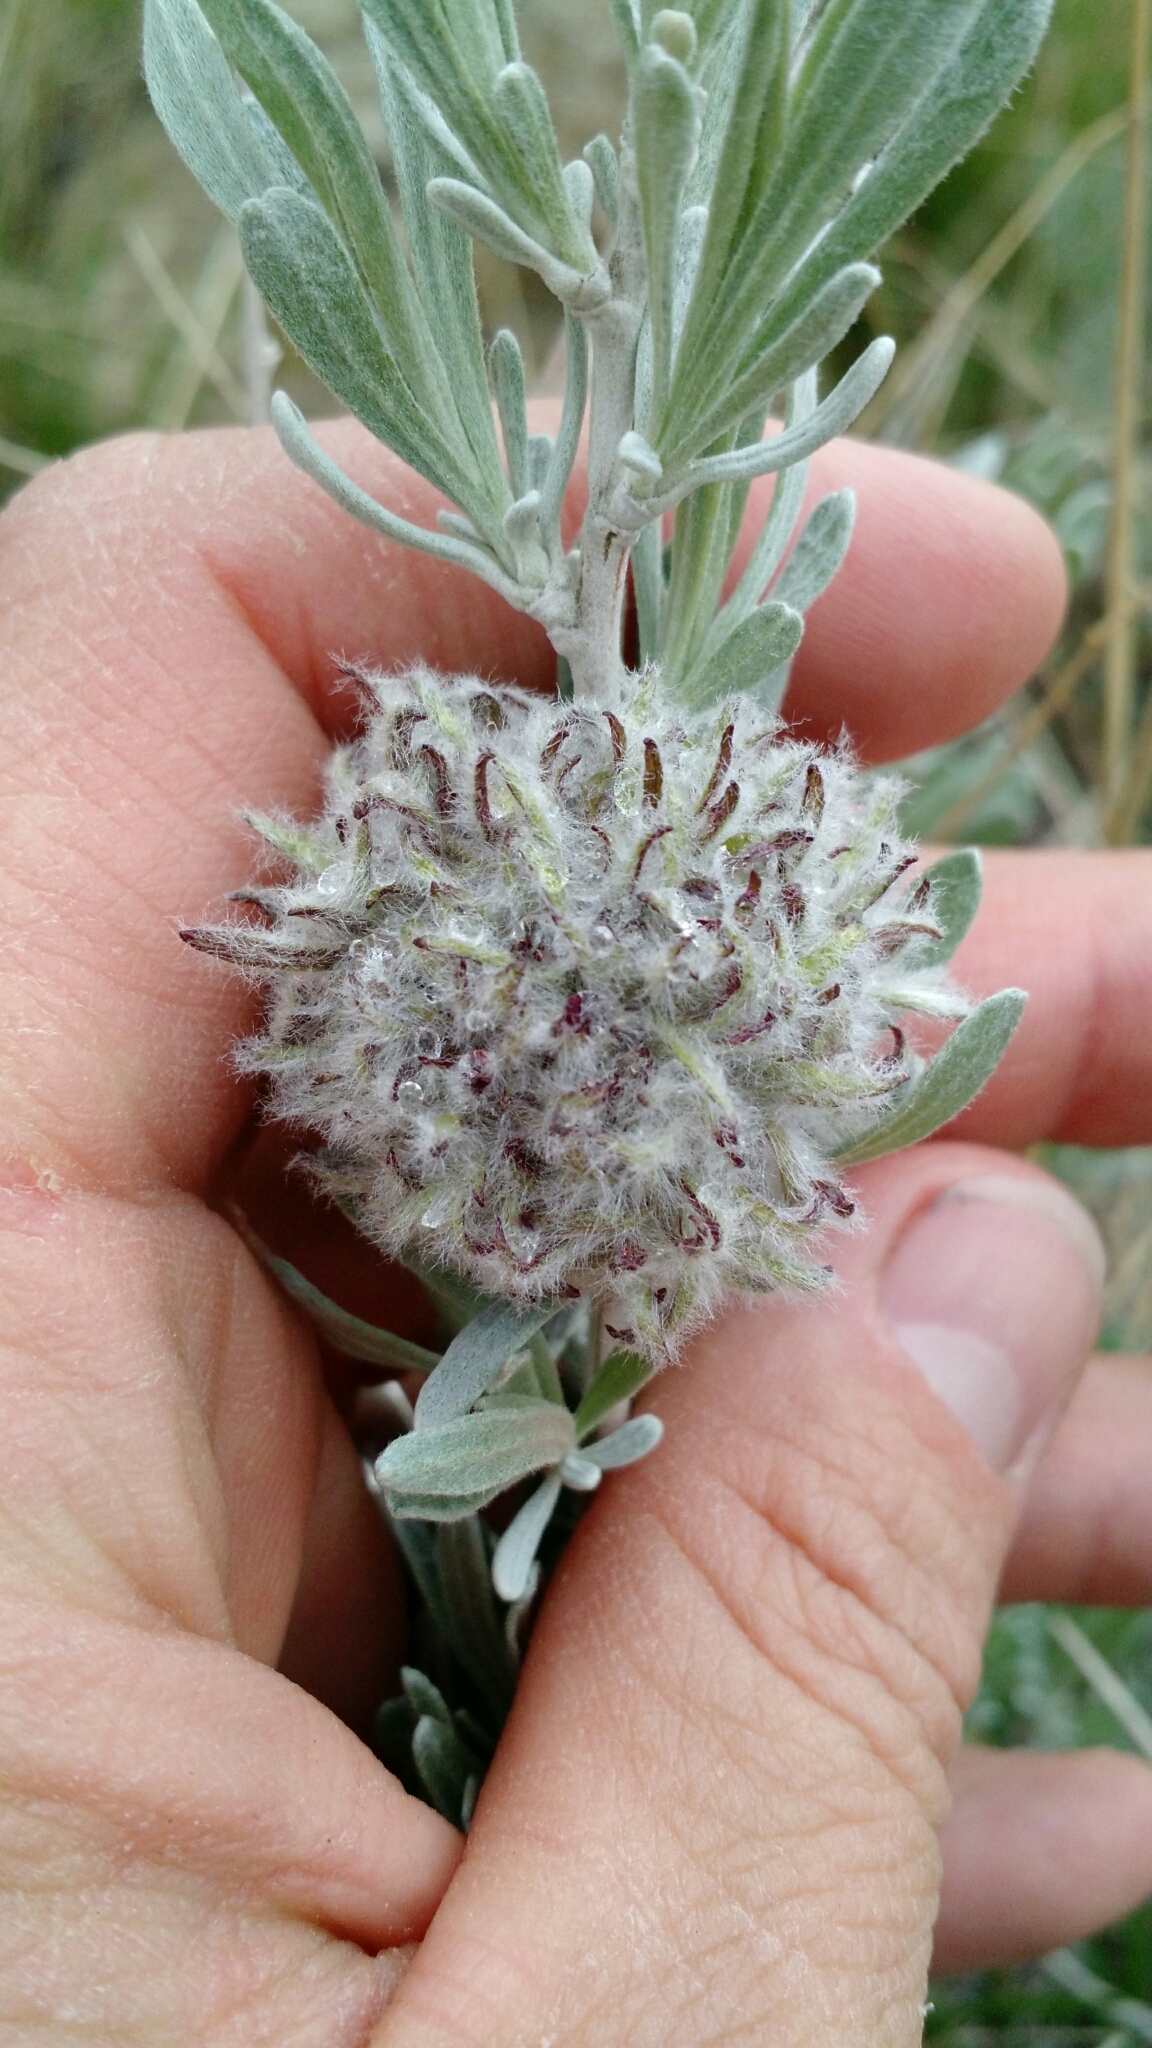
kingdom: Animalia
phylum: Arthropoda
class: Insecta
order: Diptera
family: Cecidomyiidae
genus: Rhopalomyia
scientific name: Rhopalomyia medusirrasa
